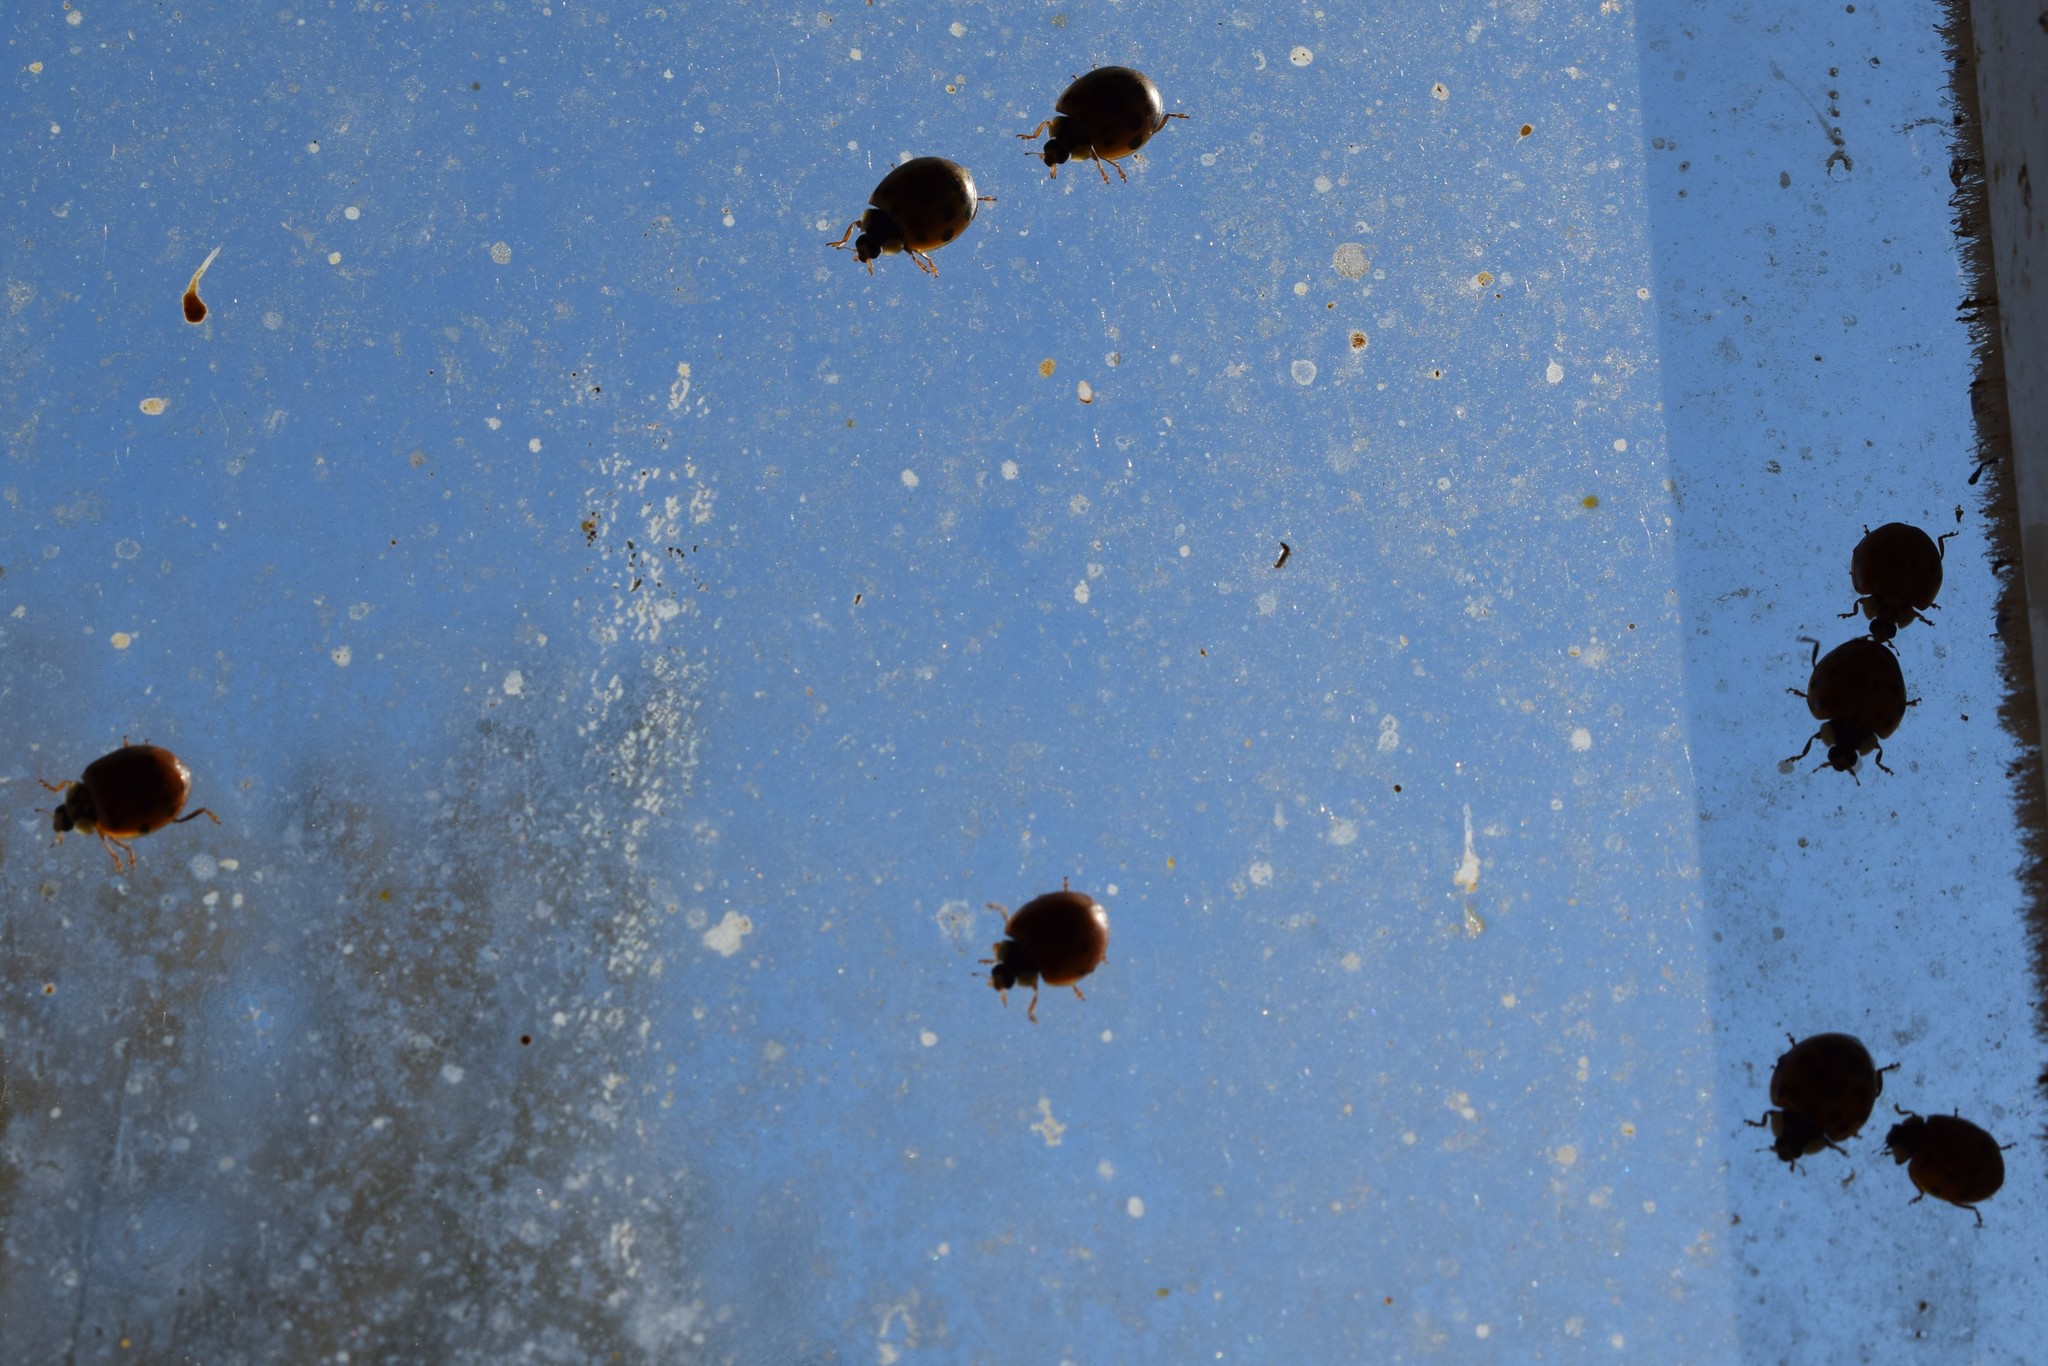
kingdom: Animalia
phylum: Arthropoda
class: Insecta
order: Coleoptera
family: Coccinellidae
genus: Harmonia
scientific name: Harmonia axyridis
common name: Harlequin ladybird
